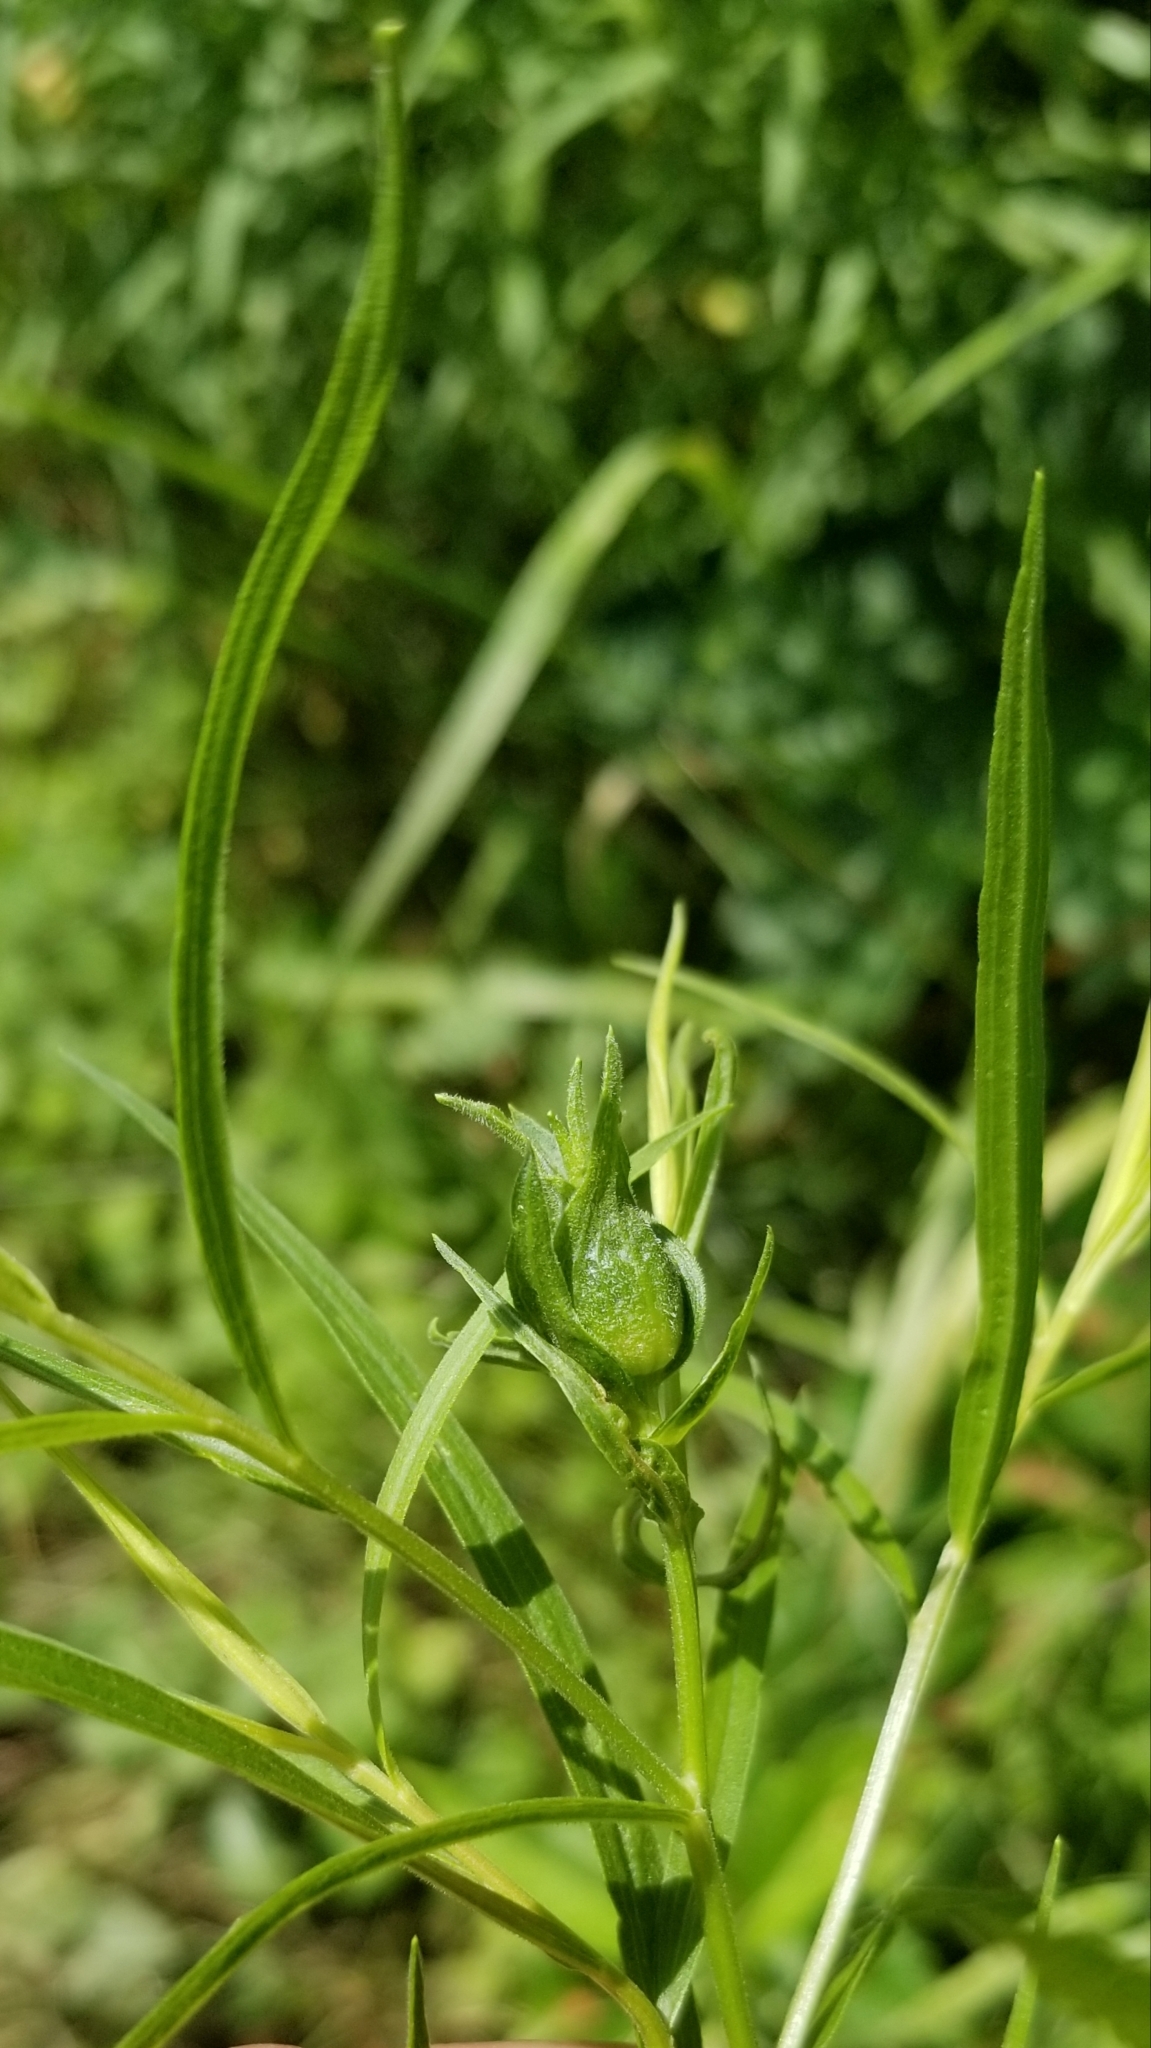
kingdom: Animalia
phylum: Arthropoda
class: Insecta
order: Diptera
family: Cecidomyiidae
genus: Asphondylia
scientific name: Asphondylia pseudorosa
